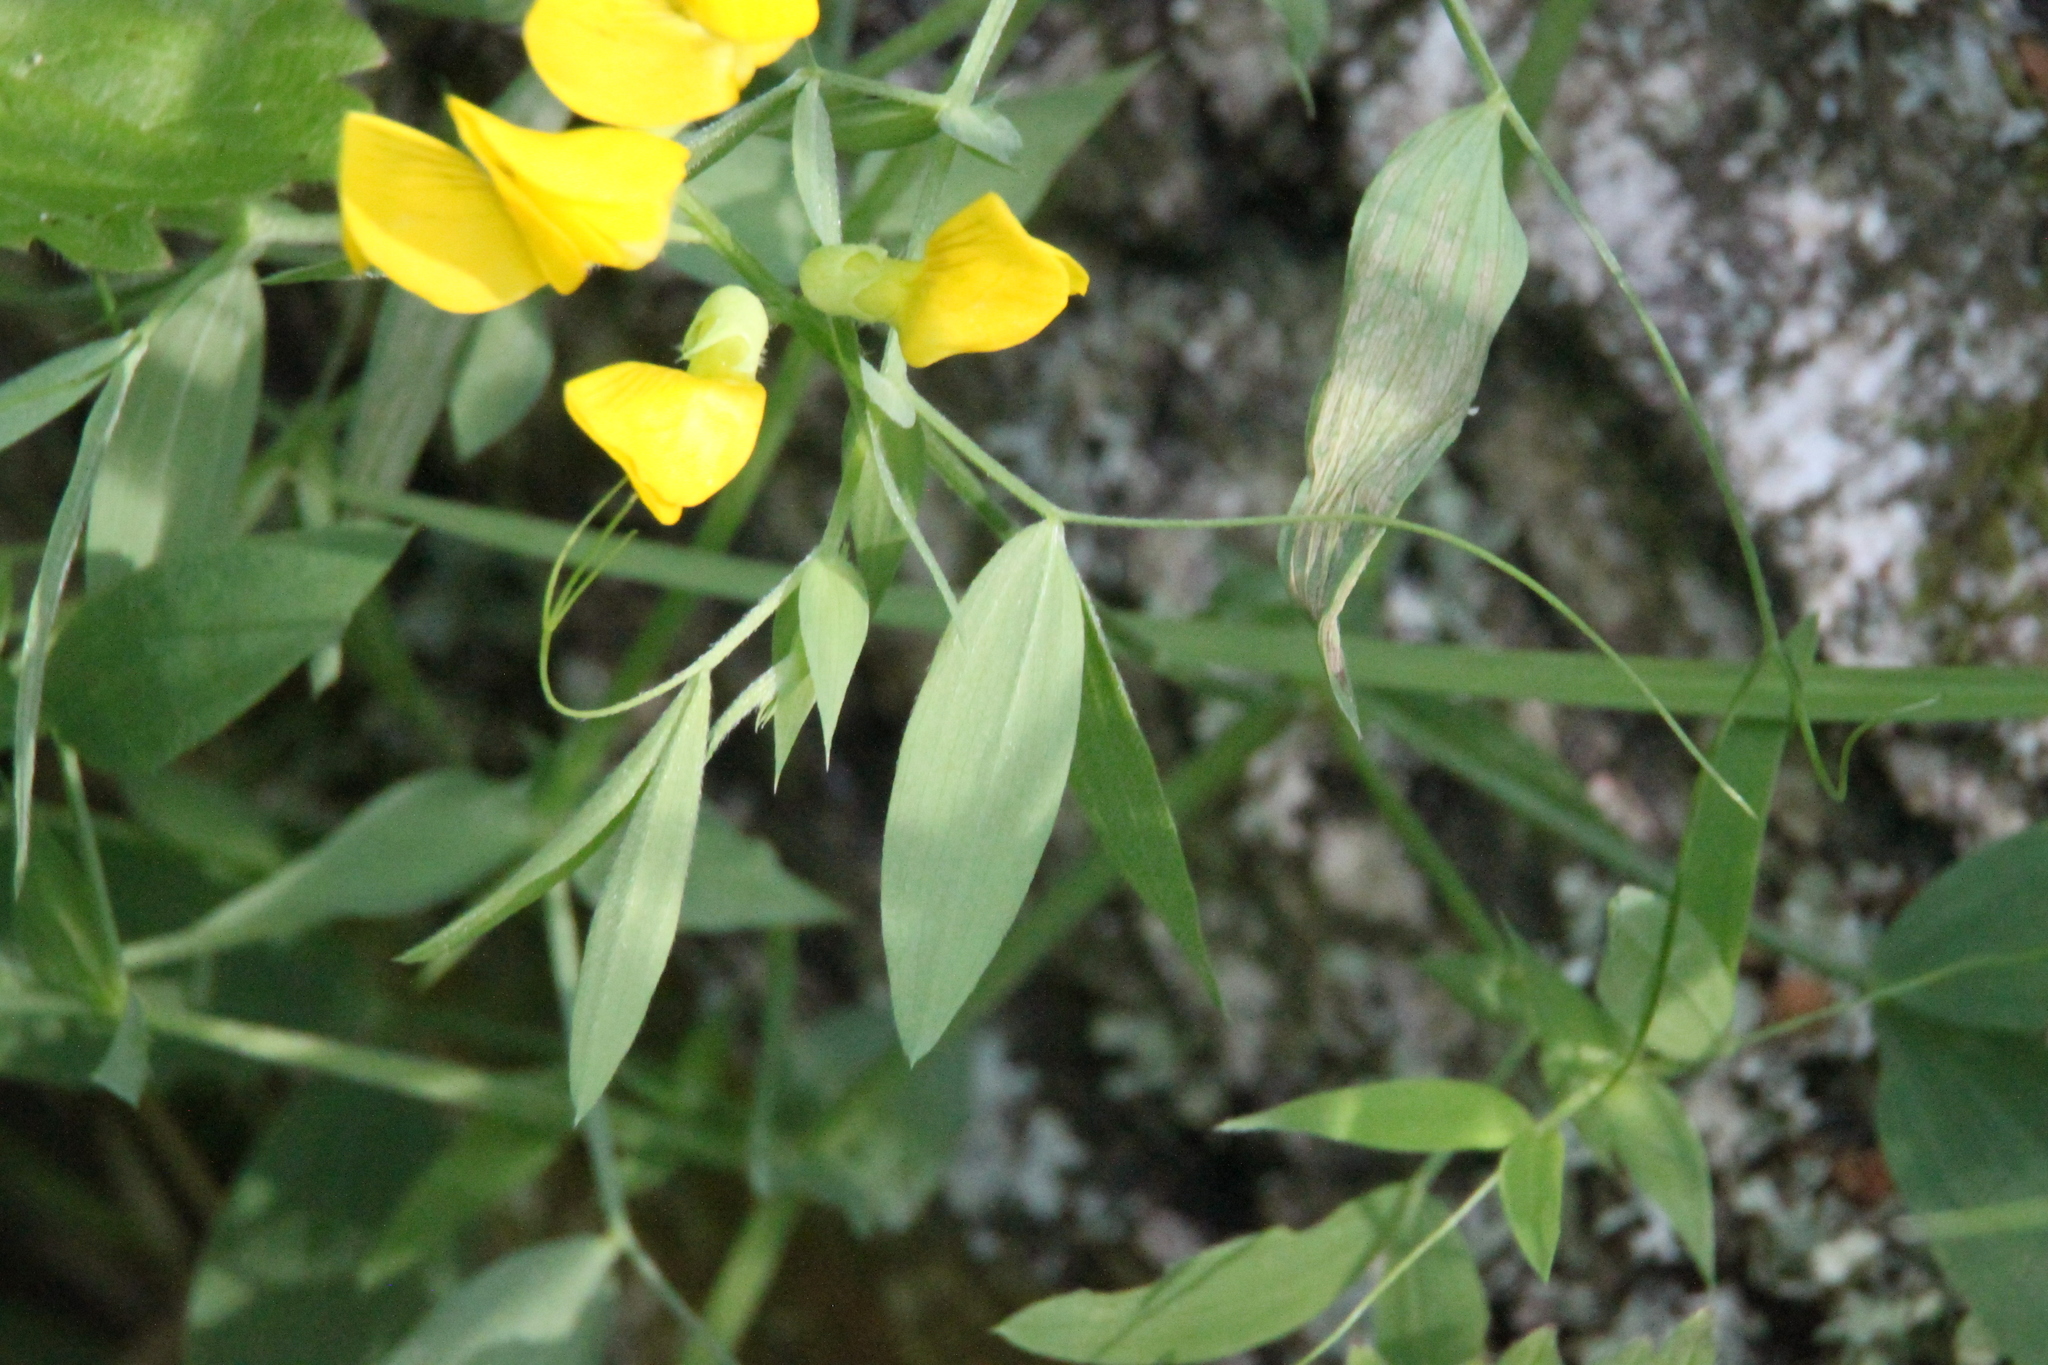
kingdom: Plantae
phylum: Tracheophyta
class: Magnoliopsida
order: Fabales
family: Fabaceae
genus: Lathyrus
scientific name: Lathyrus pratensis
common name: Meadow vetchling
